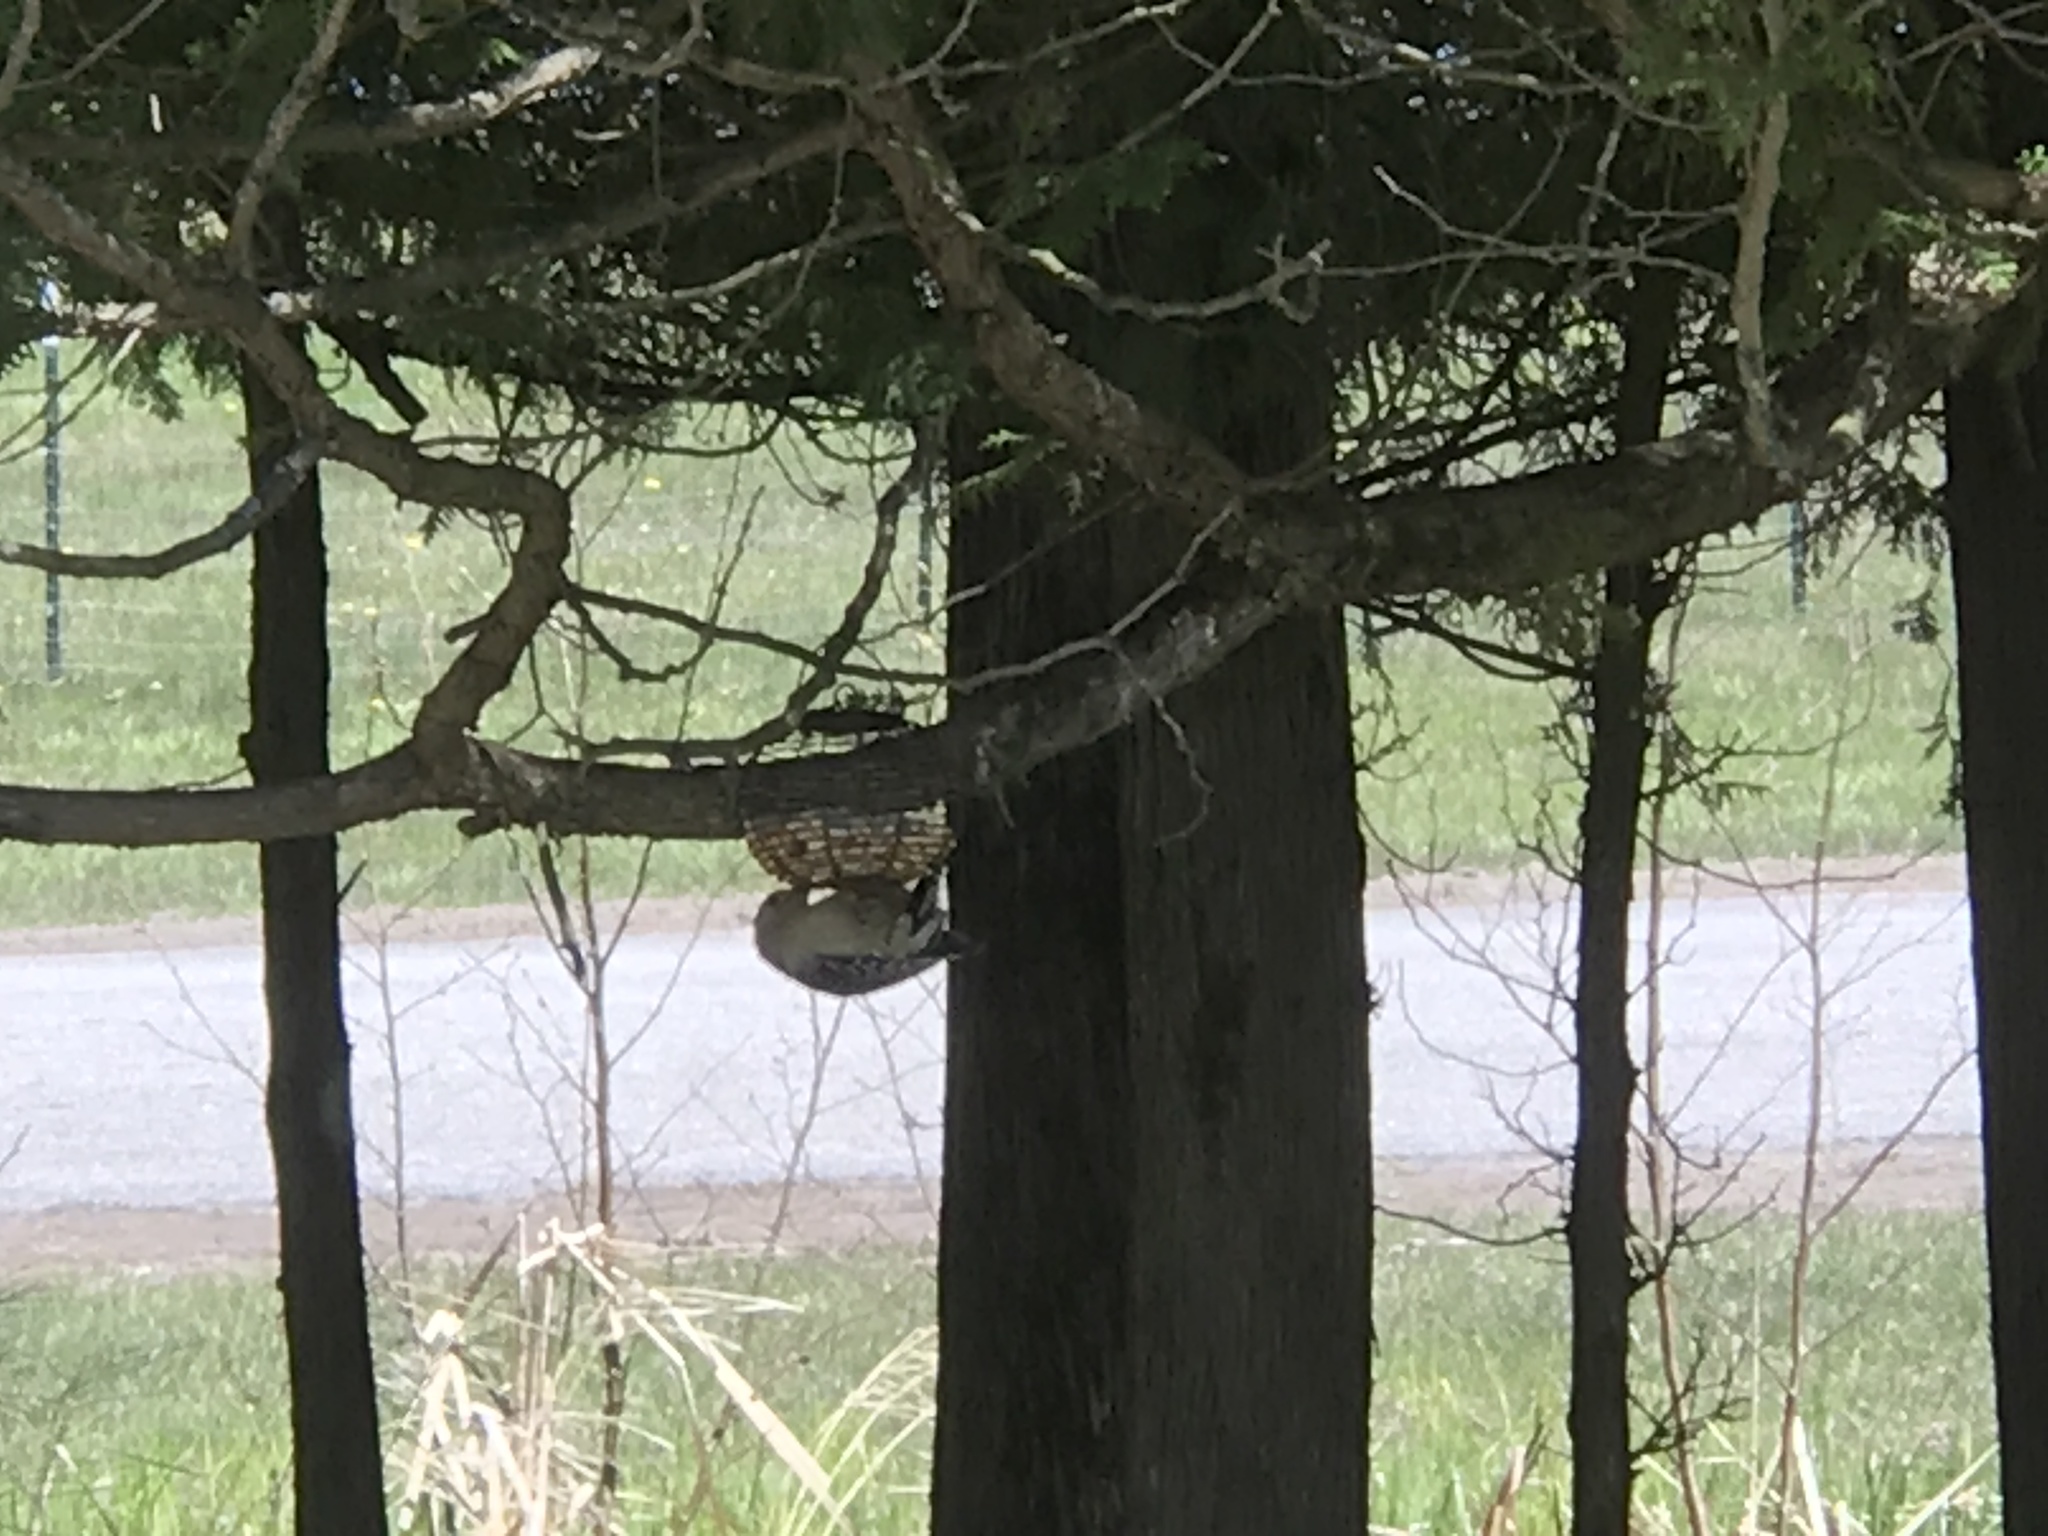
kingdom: Animalia
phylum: Chordata
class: Aves
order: Piciformes
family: Picidae
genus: Melanerpes
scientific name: Melanerpes carolinus
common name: Red-bellied woodpecker
